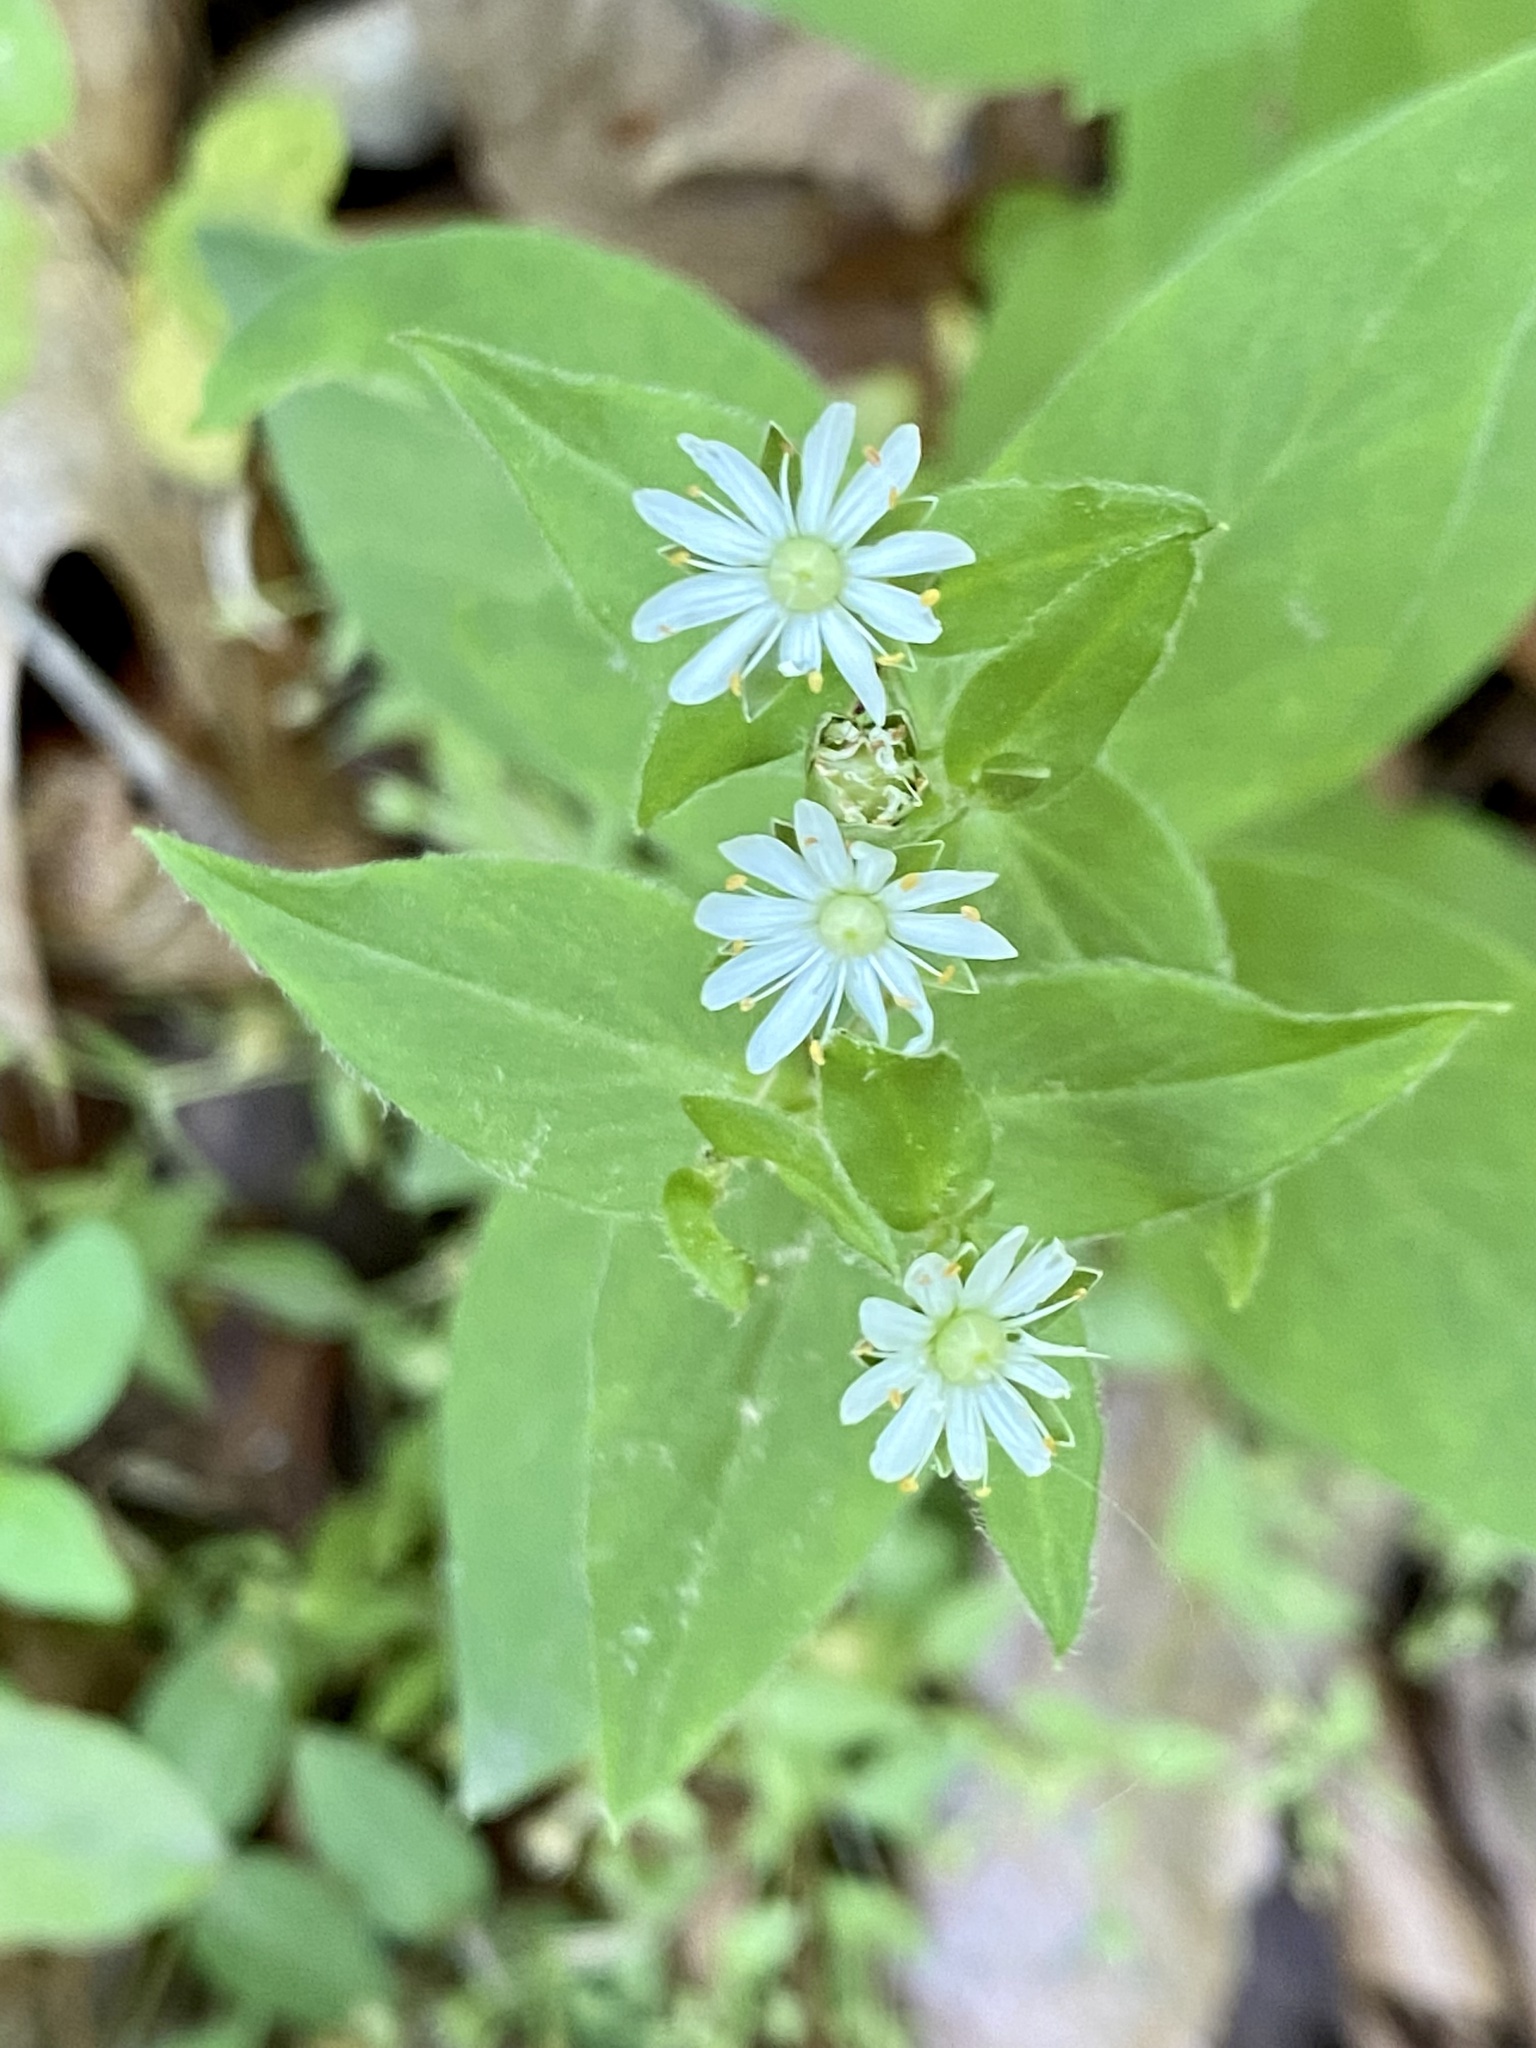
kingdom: Plantae
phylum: Tracheophyta
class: Magnoliopsida
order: Caryophyllales
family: Caryophyllaceae
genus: Stellaria
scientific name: Stellaria pubera
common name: Star chickweed
